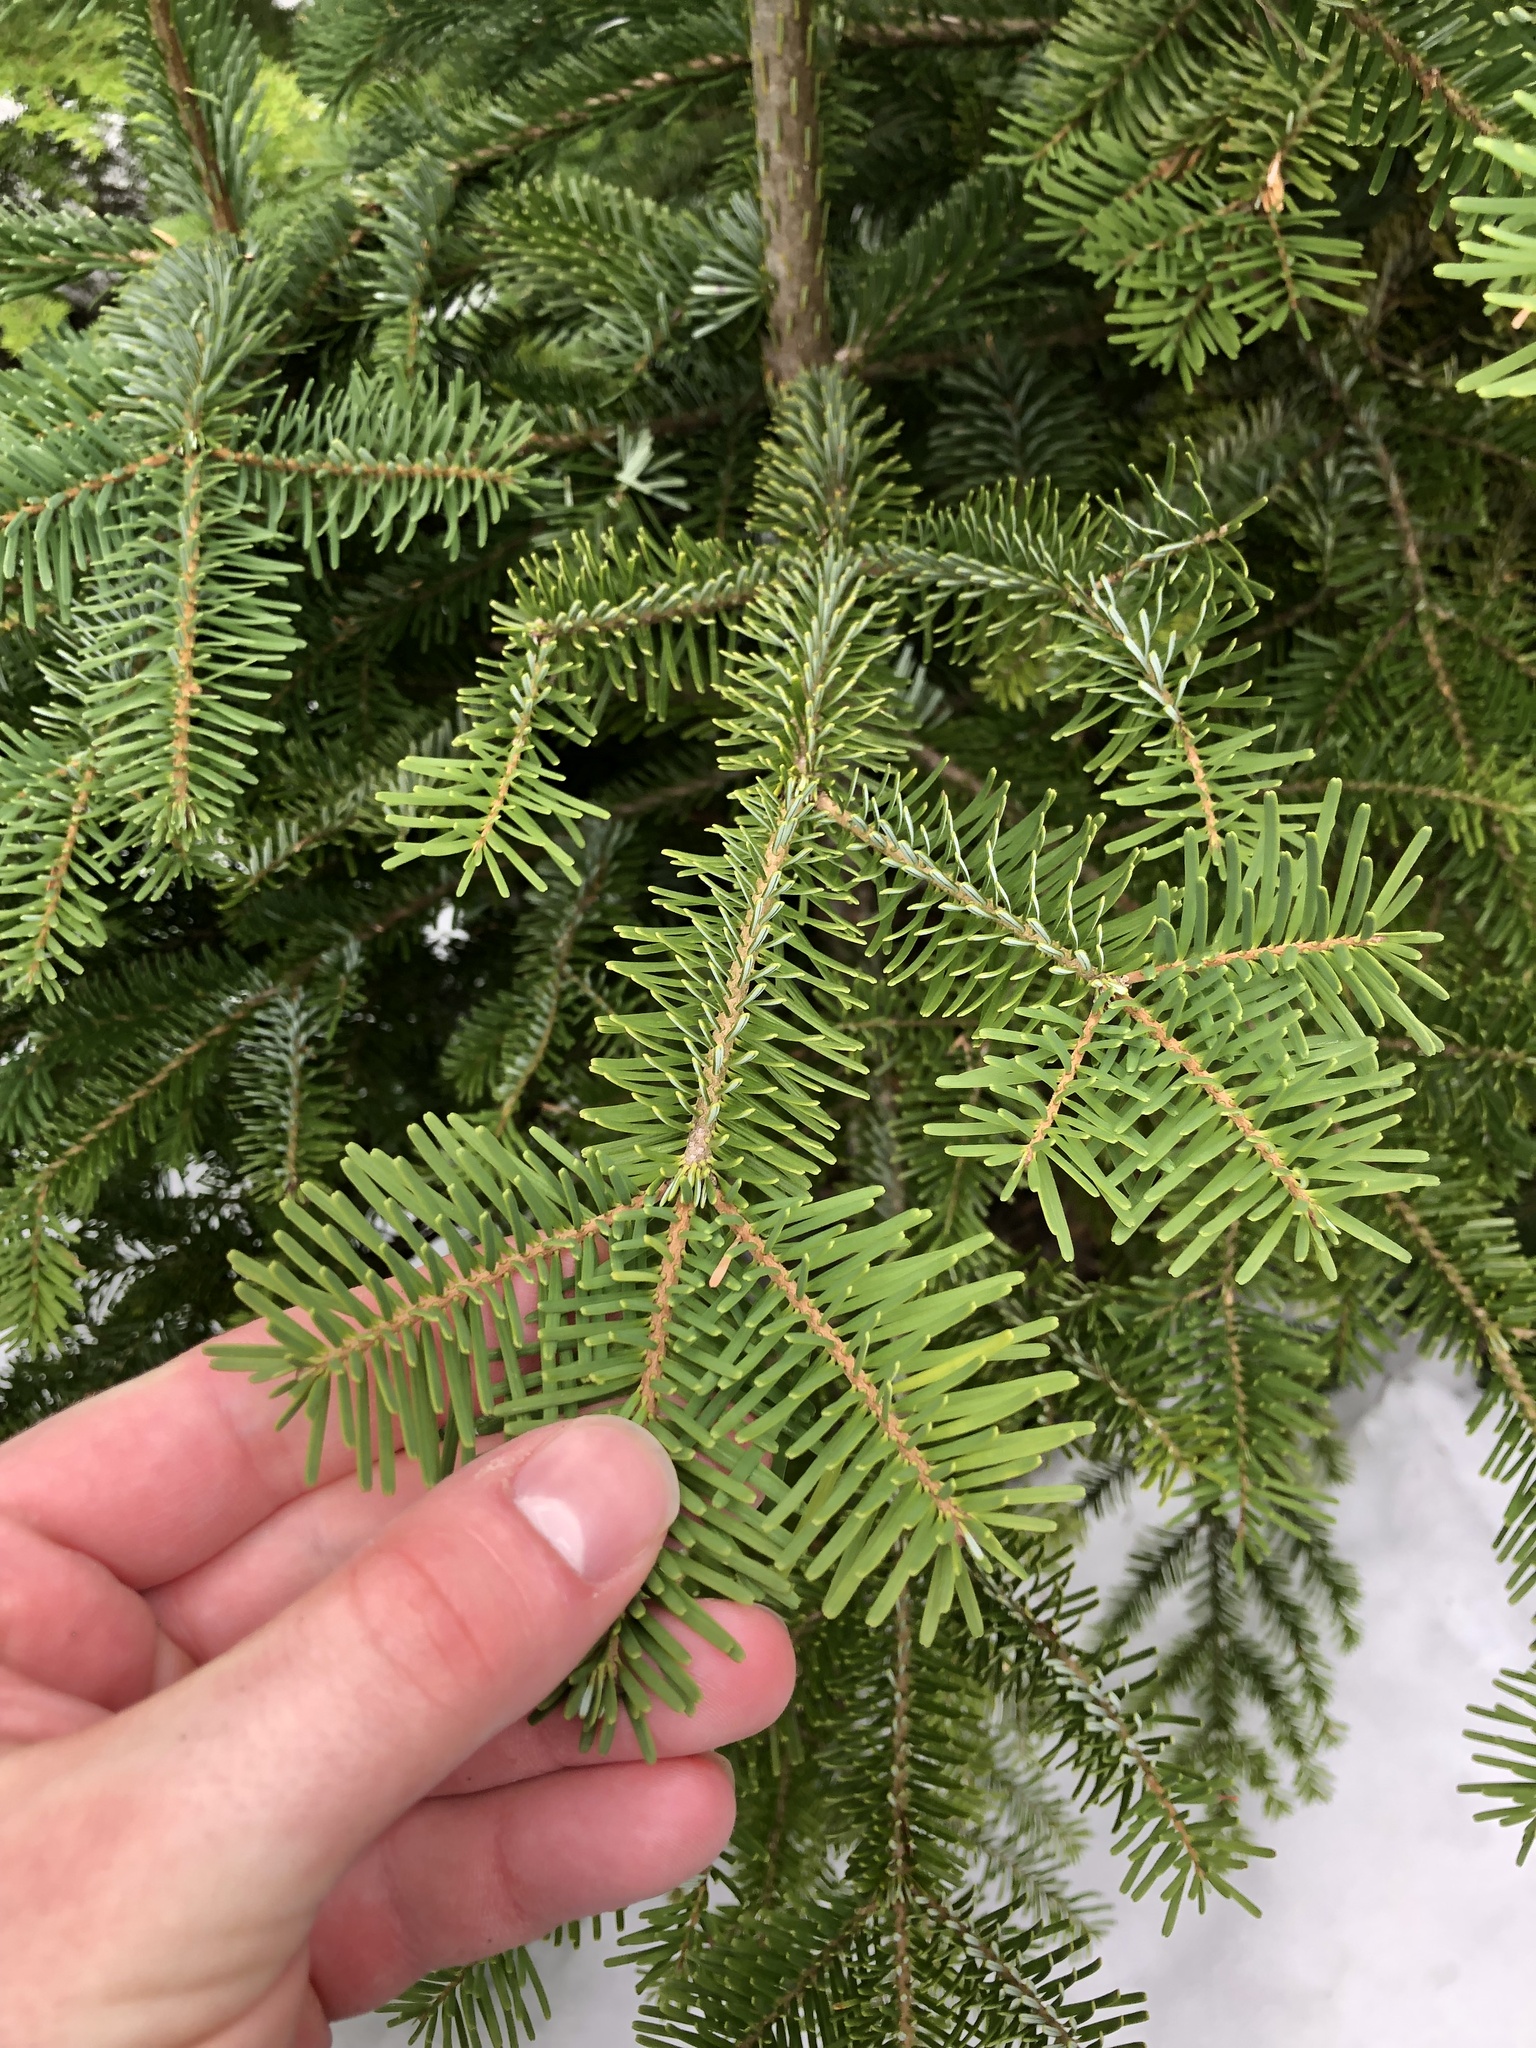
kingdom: Plantae
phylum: Tracheophyta
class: Pinopsida
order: Pinales
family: Pinaceae
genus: Abies
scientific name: Abies amabilis
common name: Pacific silver fir
